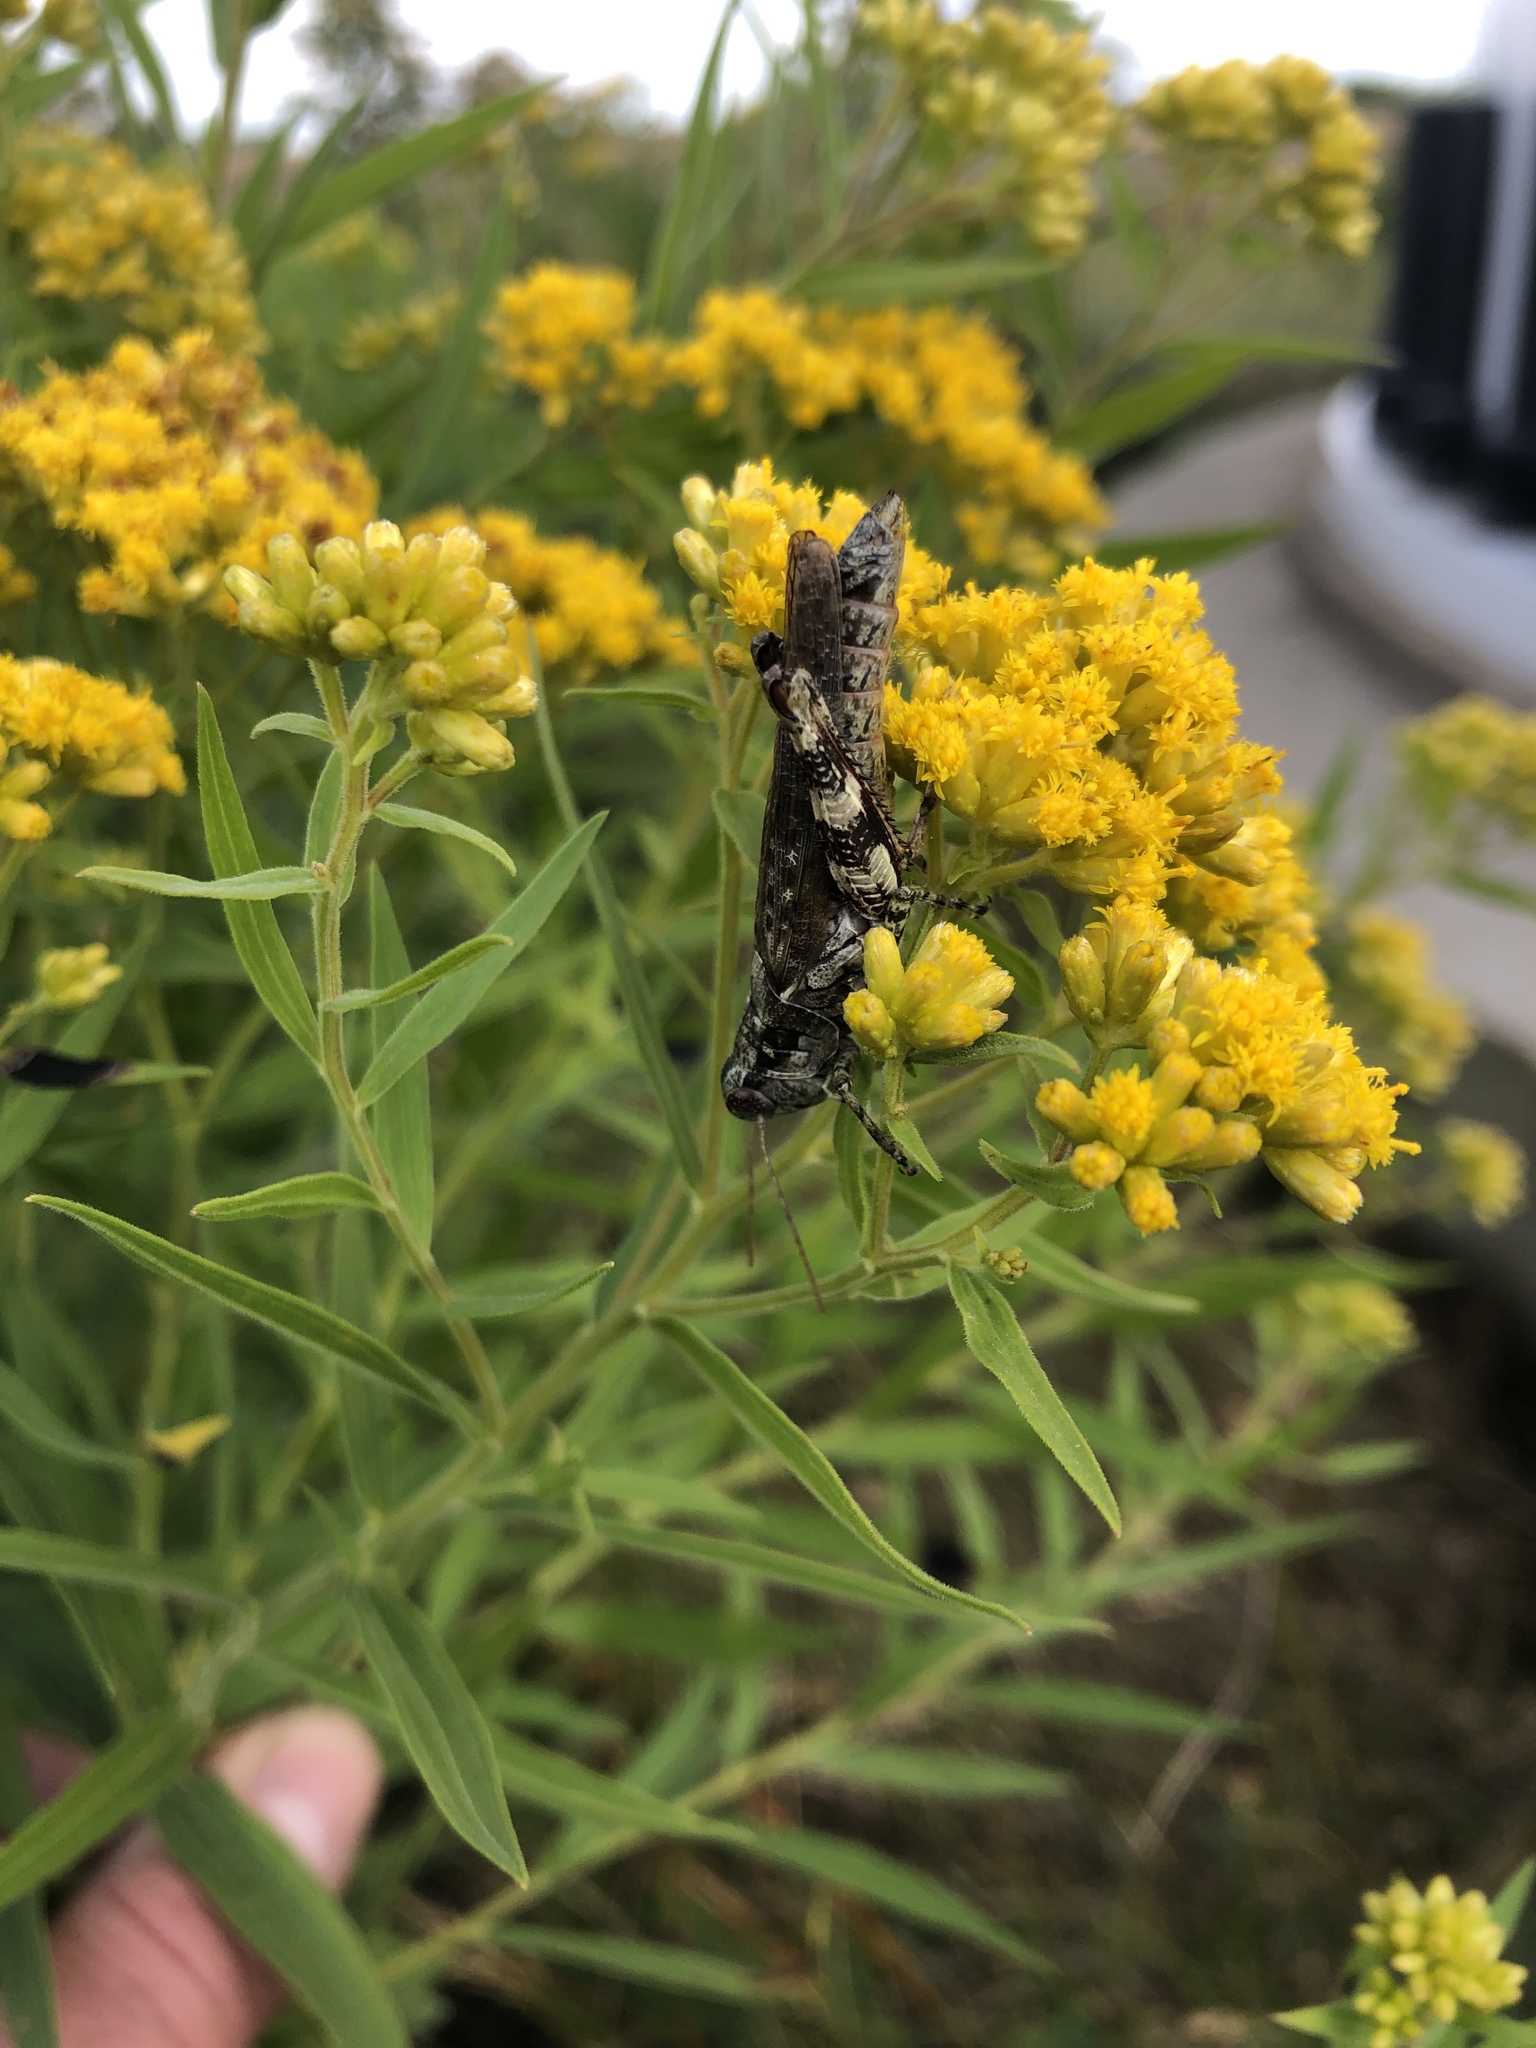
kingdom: Animalia
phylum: Arthropoda
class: Insecta
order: Orthoptera
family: Acrididae
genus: Melanoplus
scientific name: Melanoplus punctulatus
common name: Pine-tree spur-throat grasshopper
